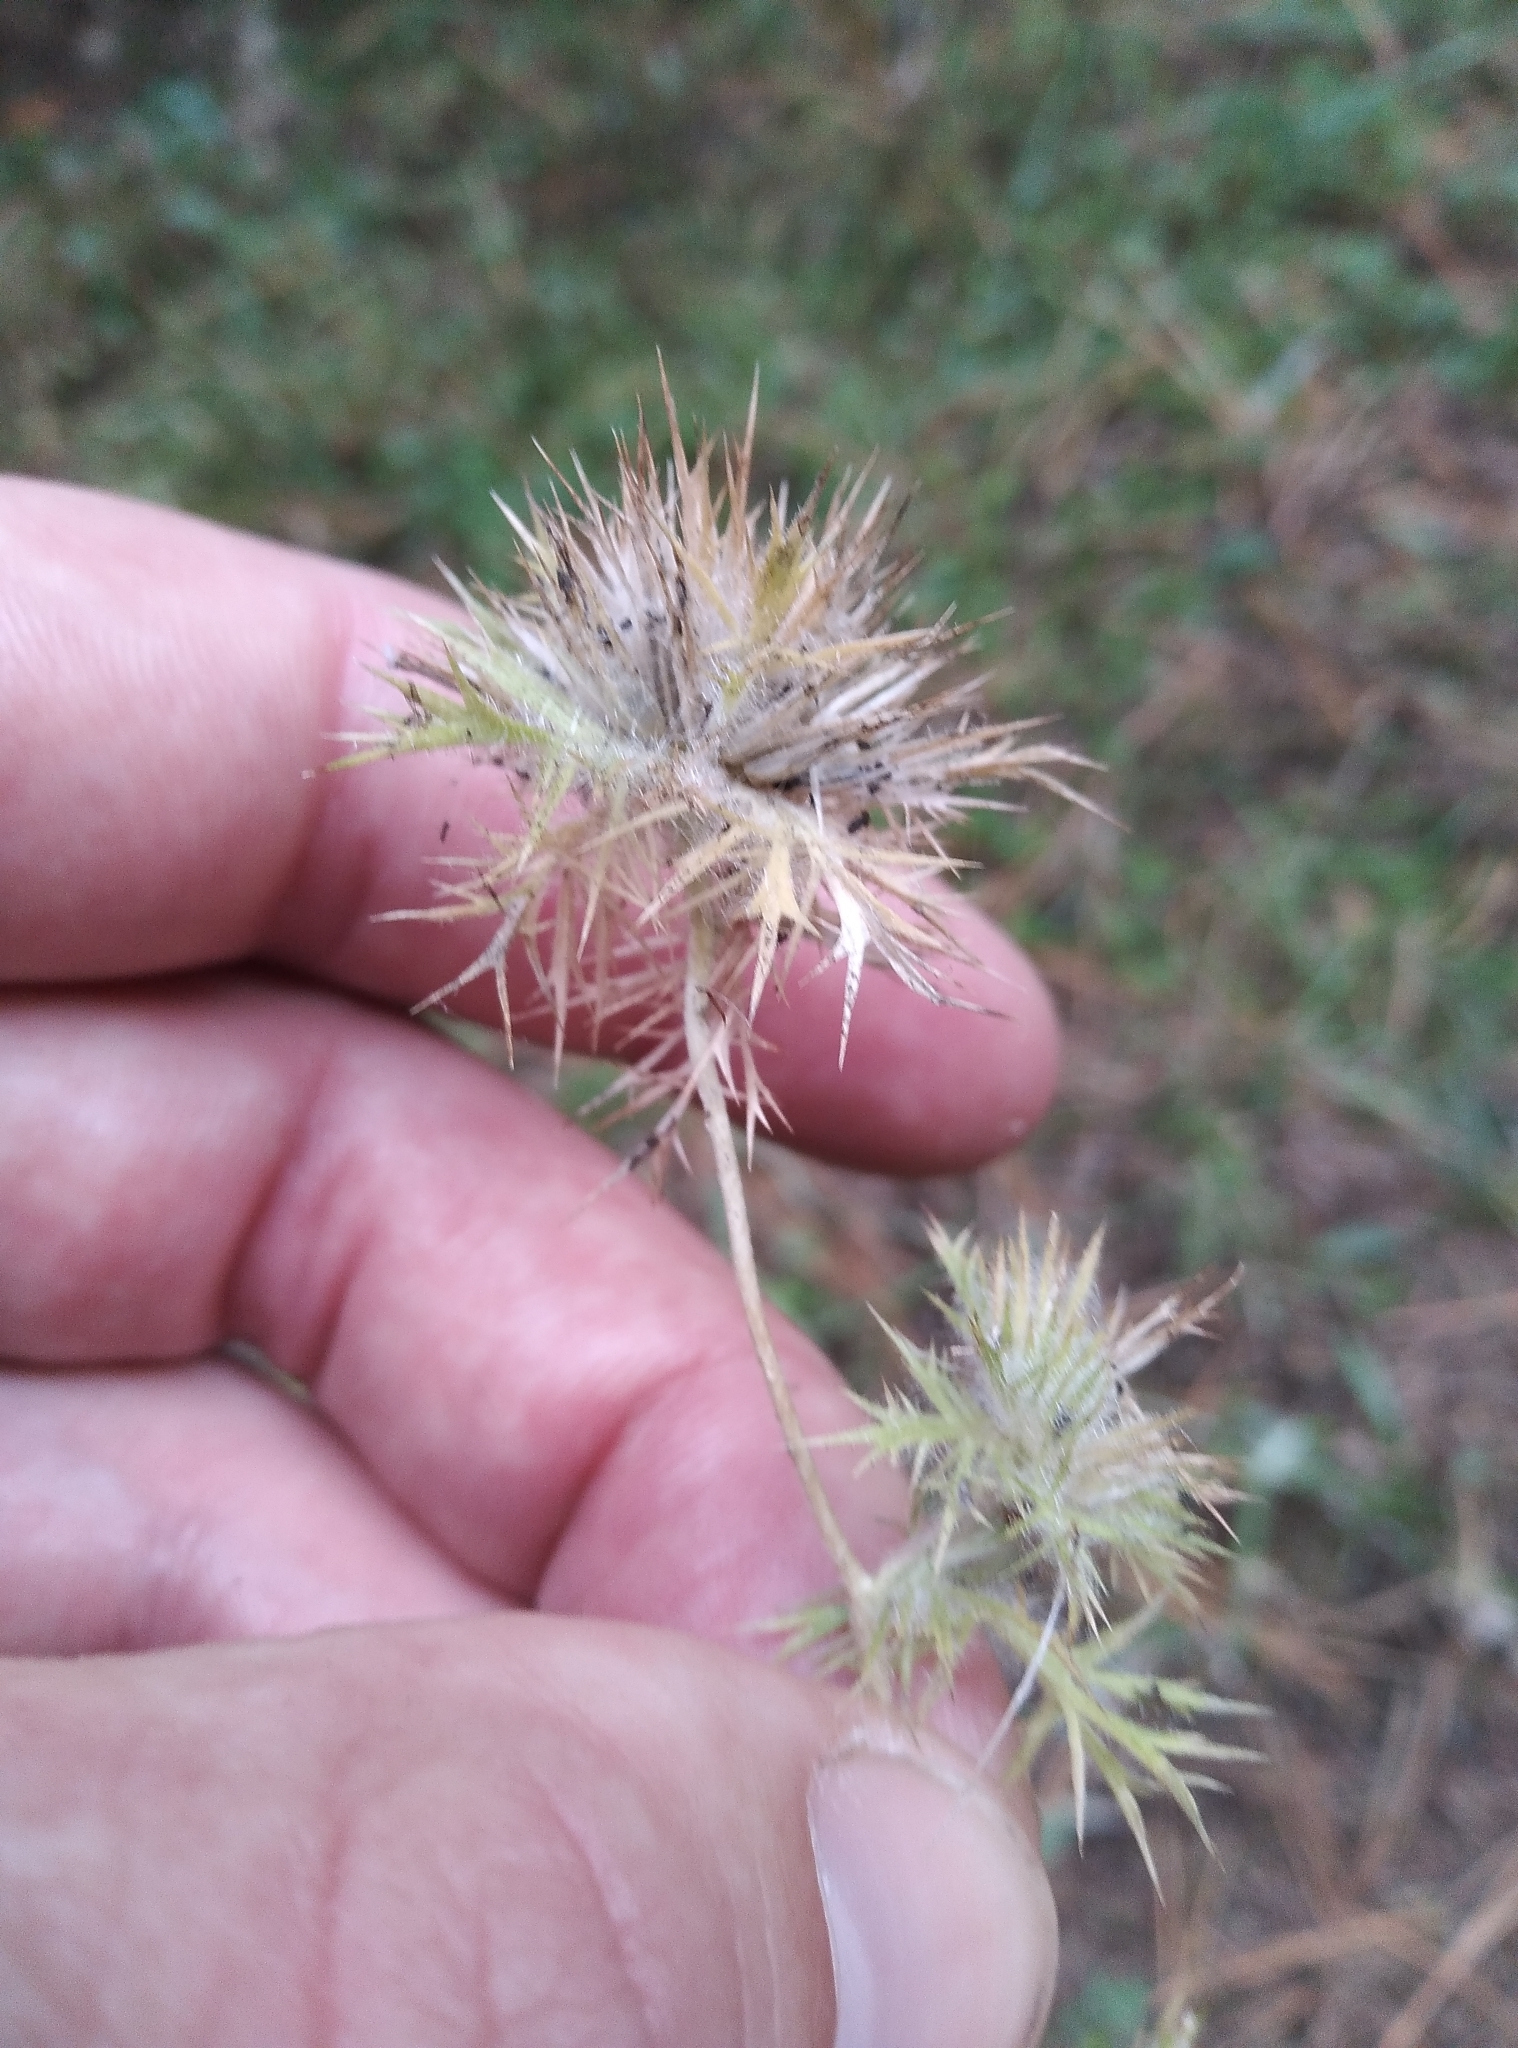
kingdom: Plantae
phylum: Tracheophyta
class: Magnoliopsida
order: Ericales
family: Polemoniaceae
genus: Navarretia
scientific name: Navarretia squarrosa
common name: Skunkweed
